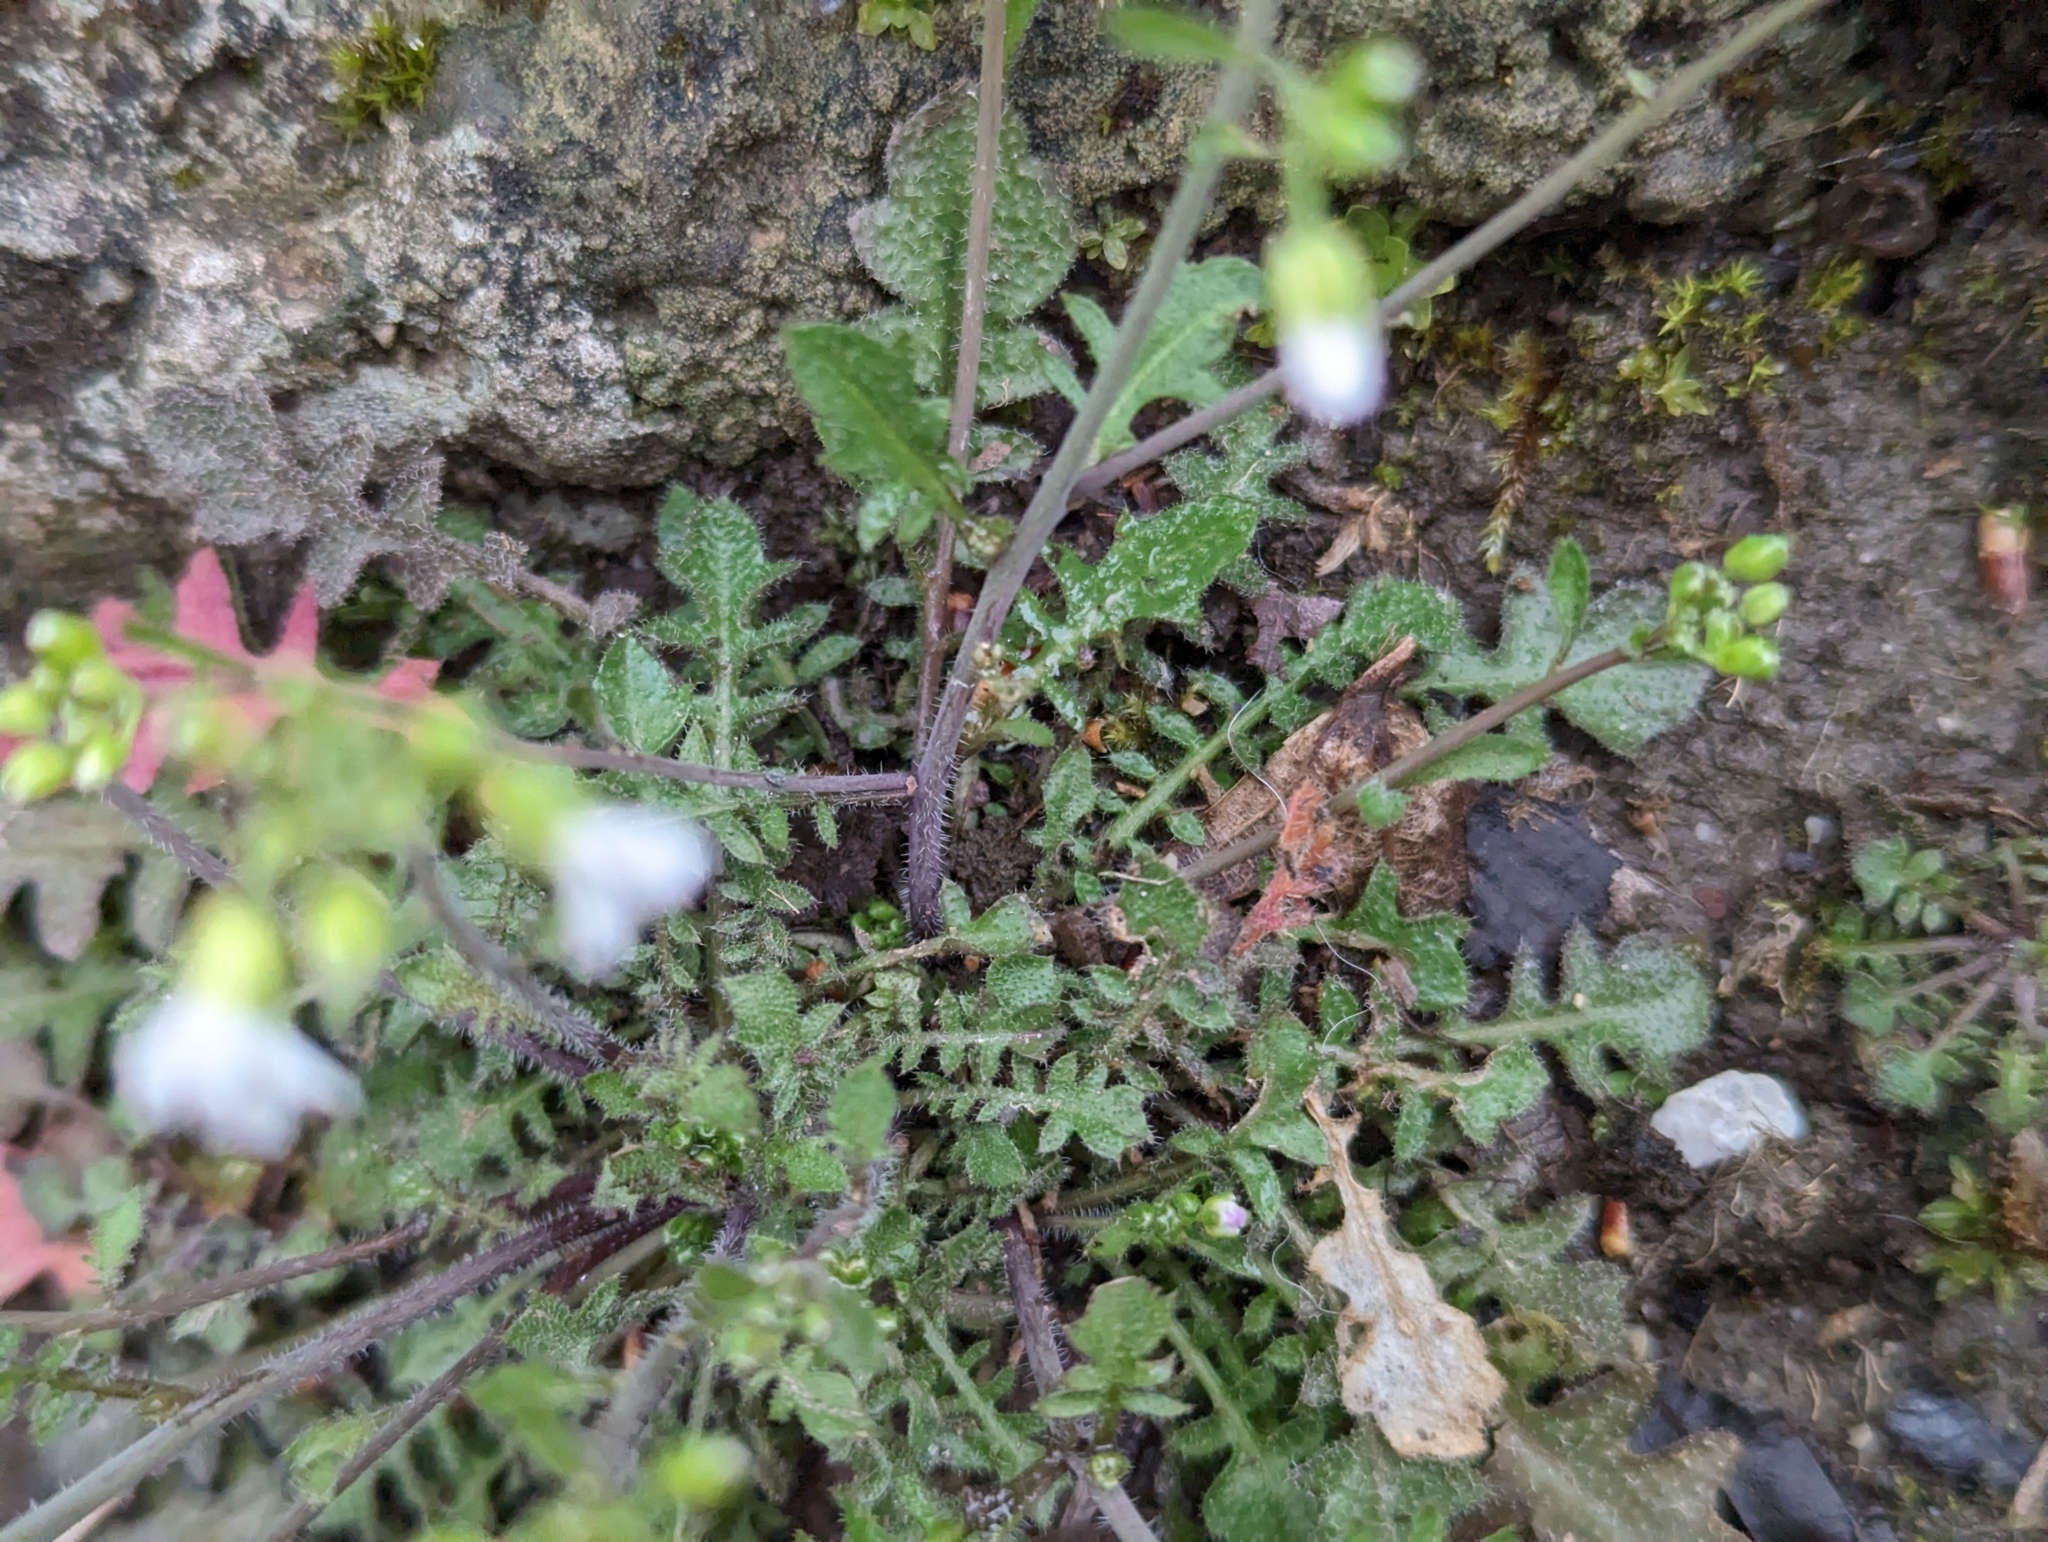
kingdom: Plantae
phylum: Tracheophyta
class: Magnoliopsida
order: Brassicales
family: Brassicaceae
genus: Arabidopsis
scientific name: Arabidopsis arenosa
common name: Sand rock-cress
